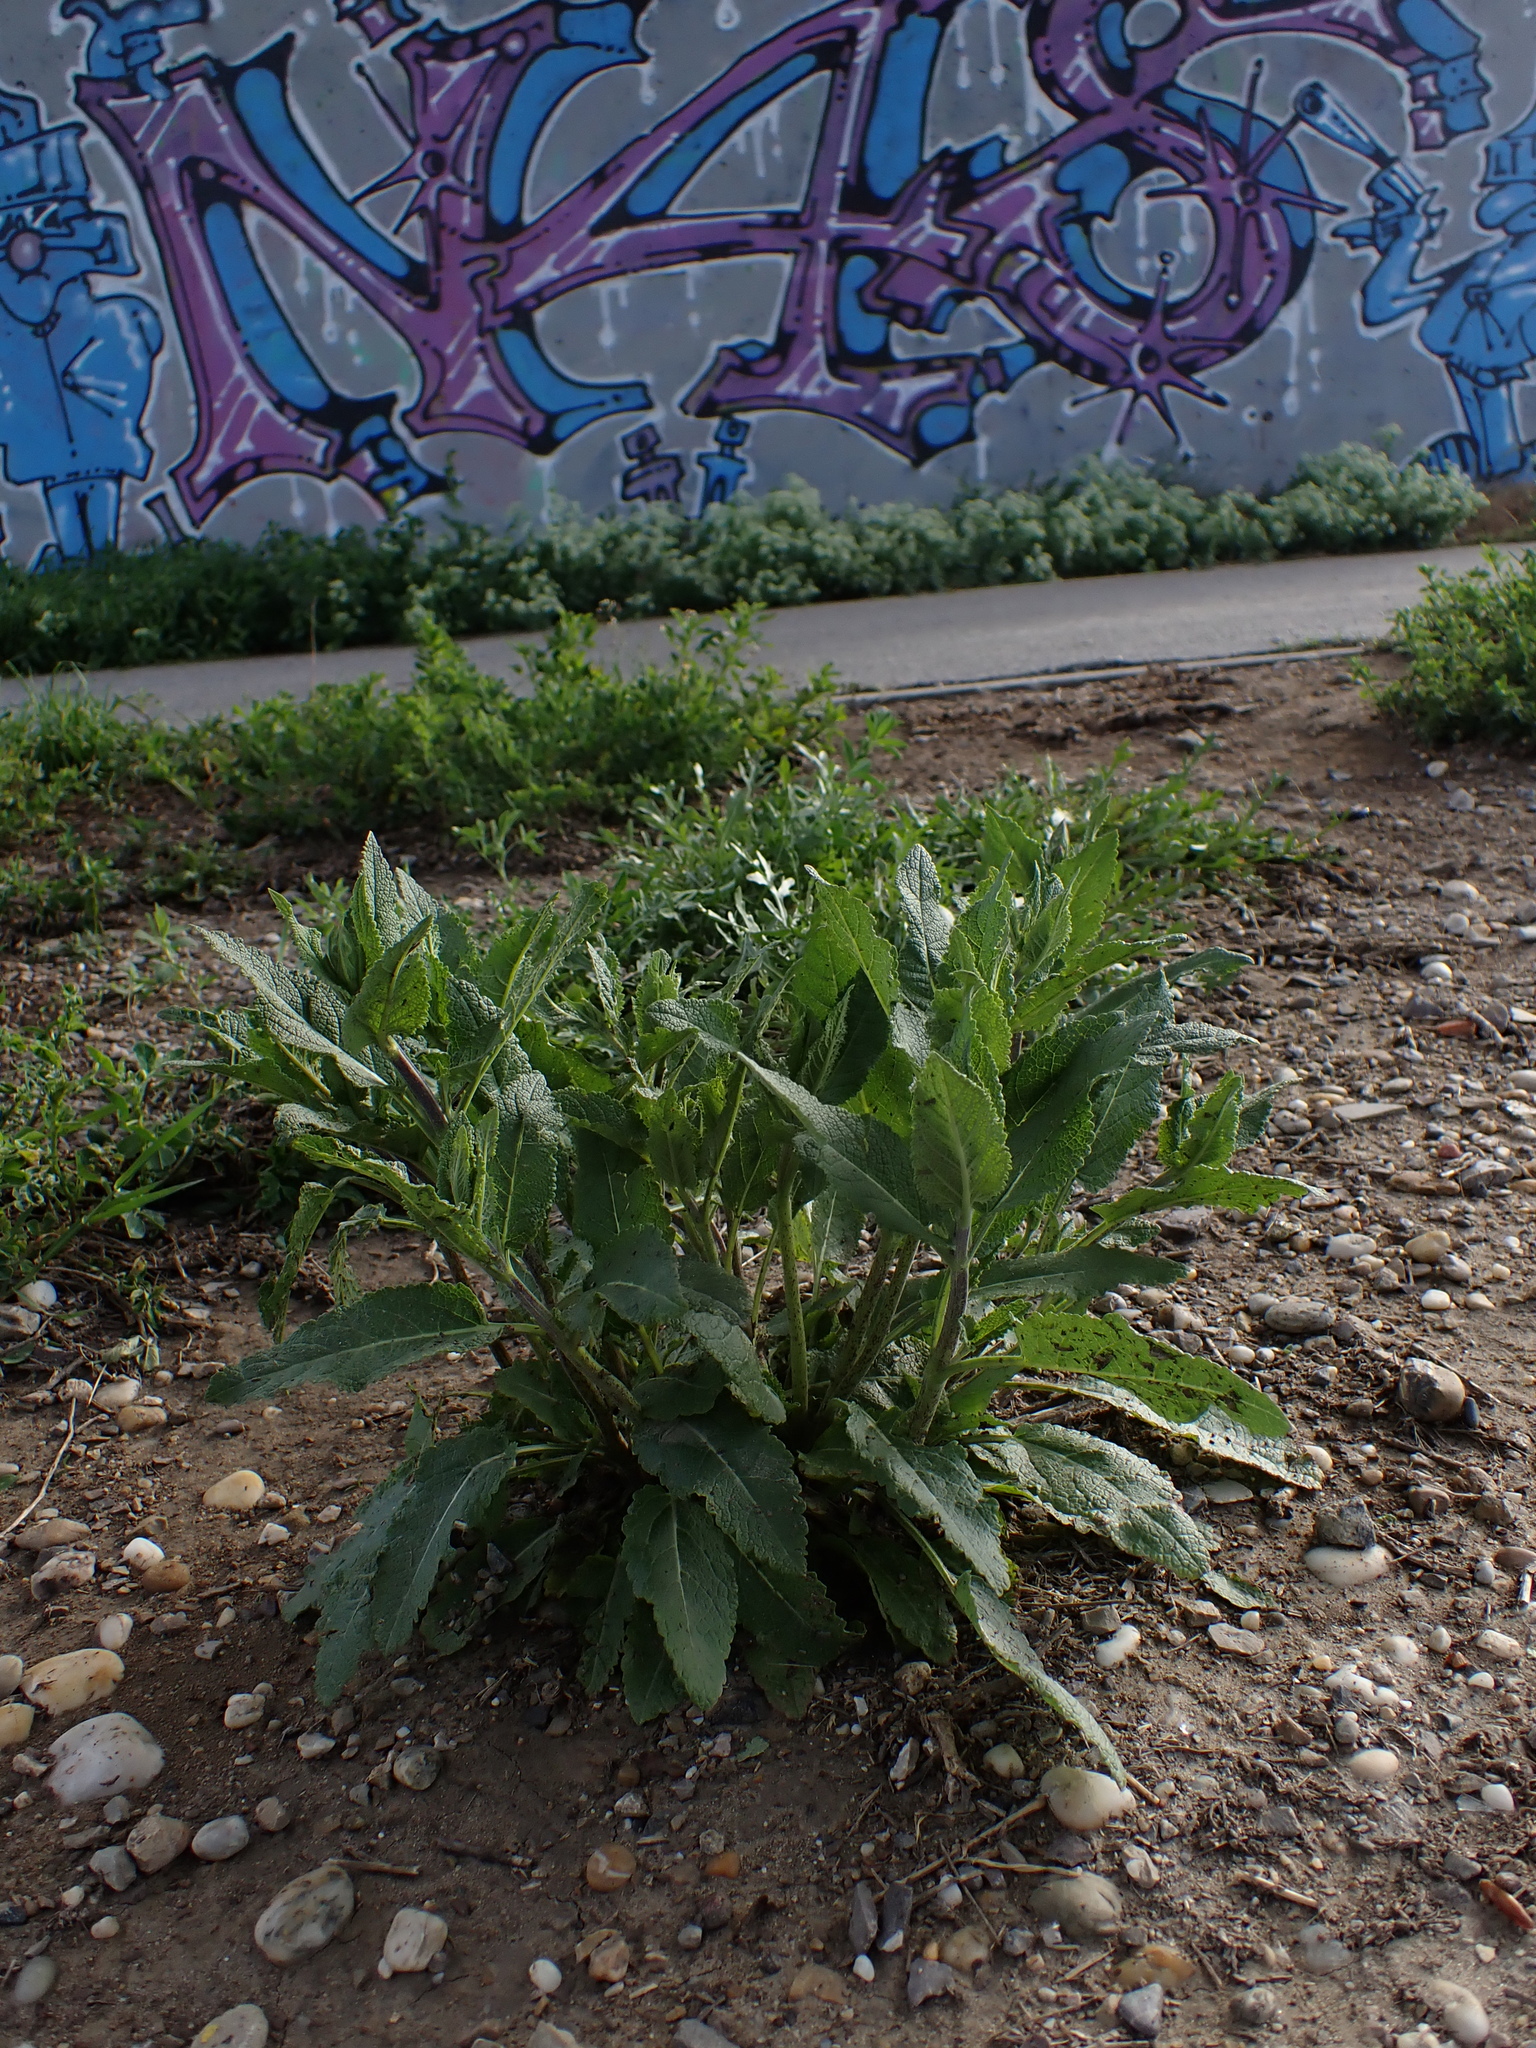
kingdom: Plantae
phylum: Tracheophyta
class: Magnoliopsida
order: Lamiales
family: Lamiaceae
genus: Salvia
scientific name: Salvia nemorosa
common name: Balkan clary
